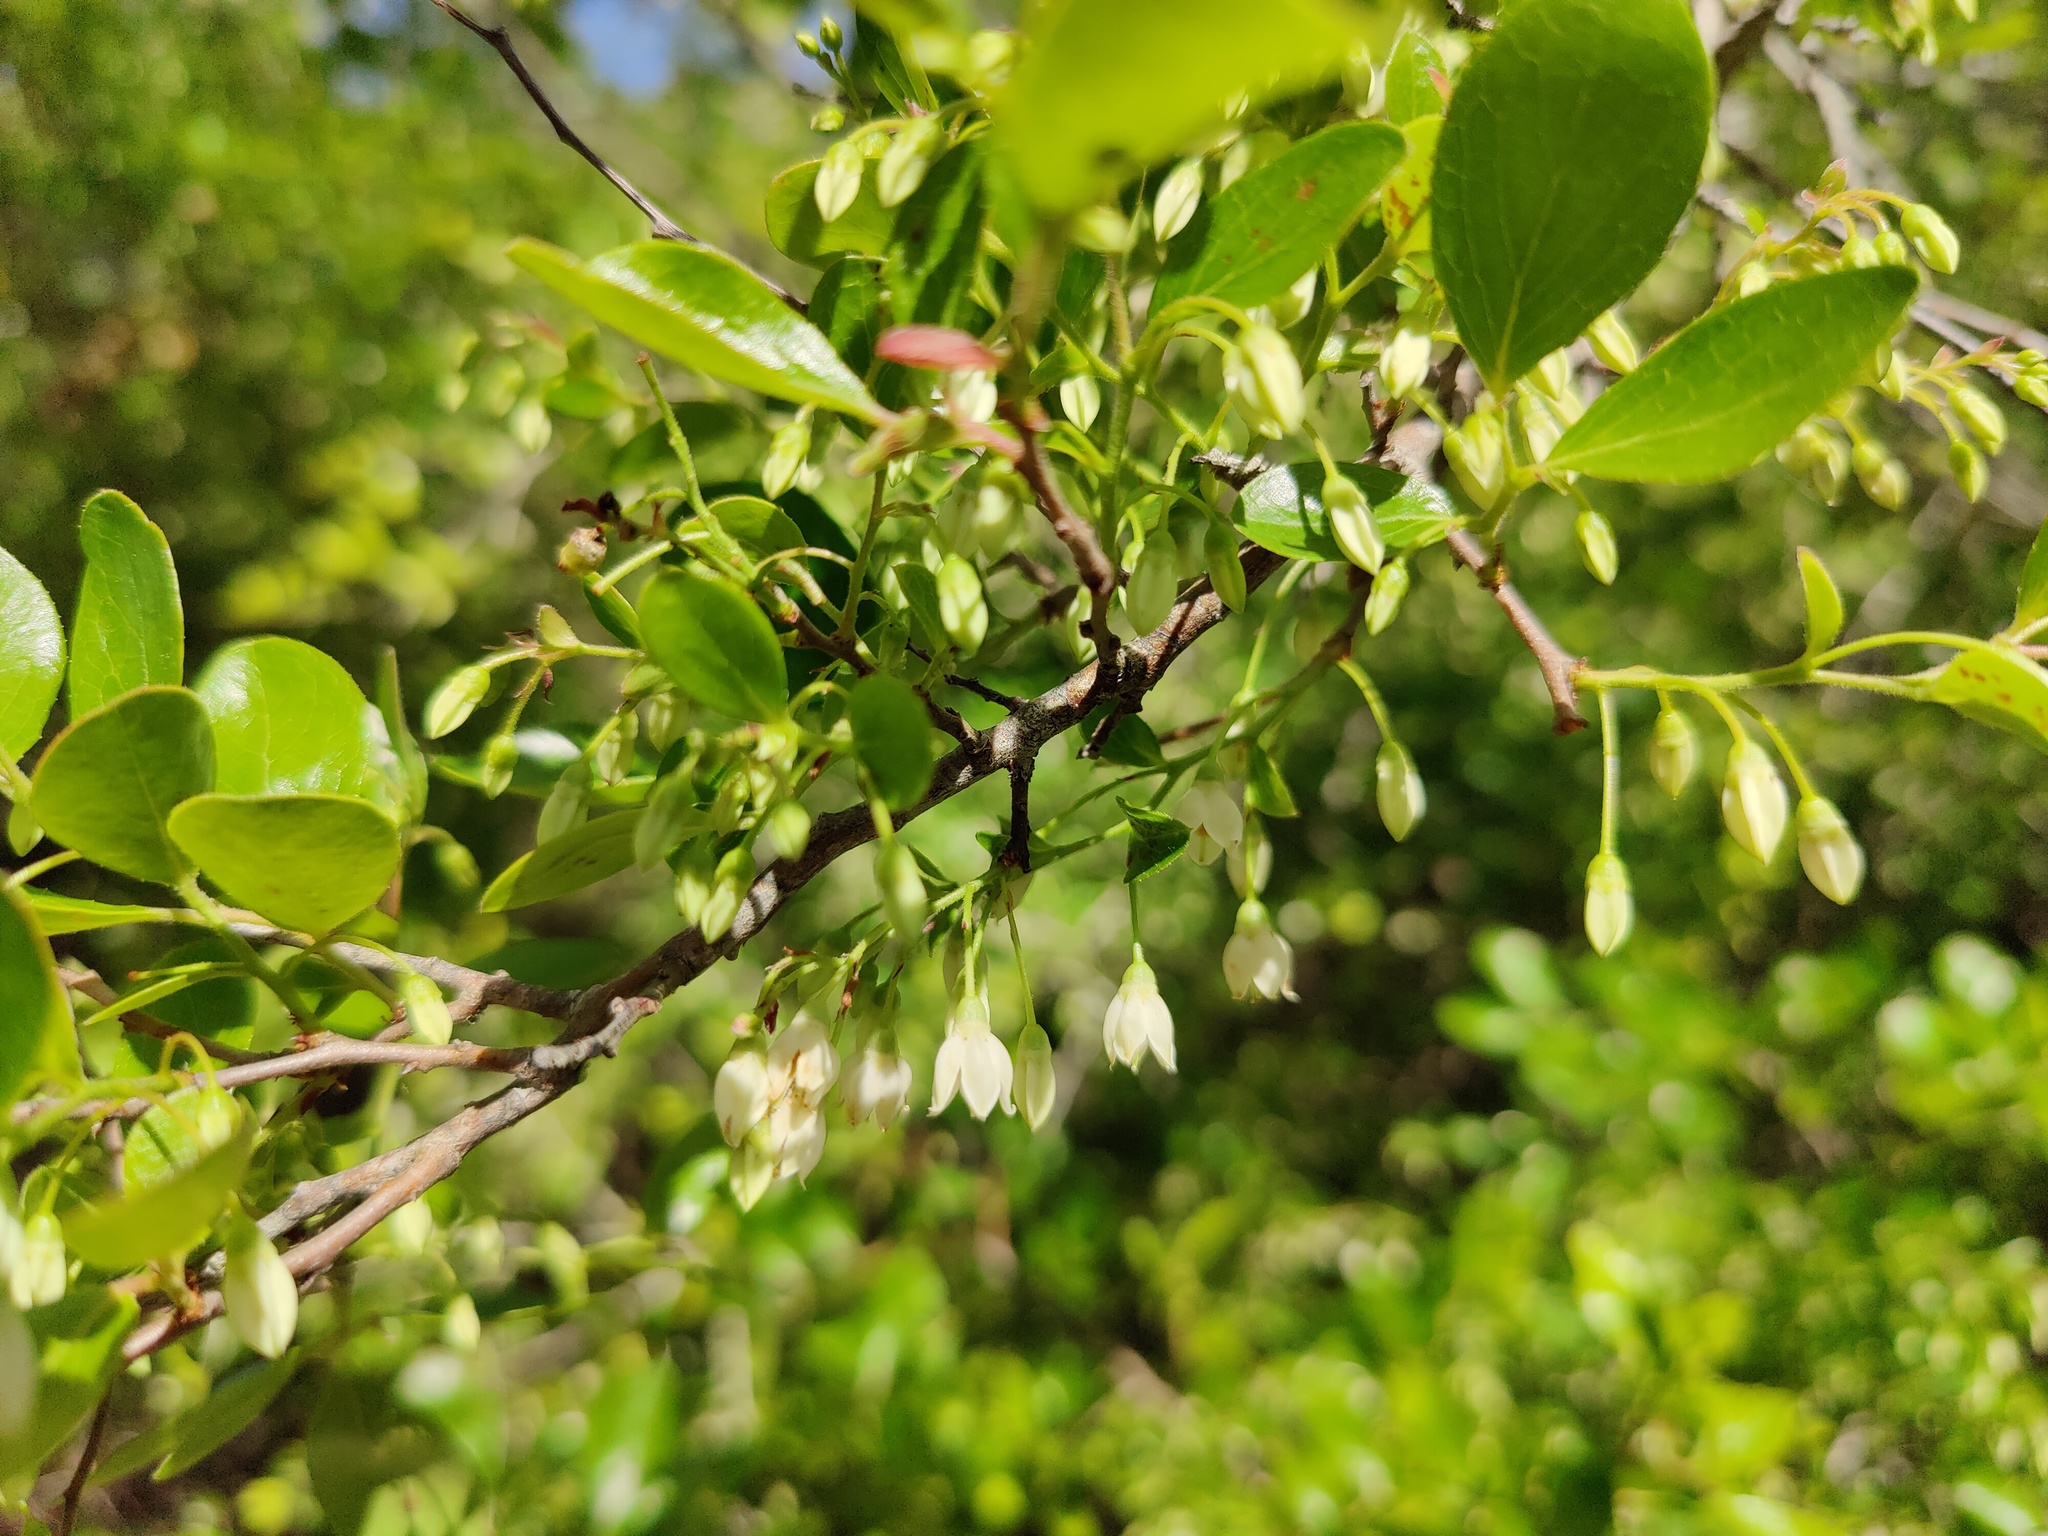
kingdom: Plantae
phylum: Tracheophyta
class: Magnoliopsida
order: Ericales
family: Ericaceae
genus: Vaccinium
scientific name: Vaccinium arboreum
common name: Farkleberry
